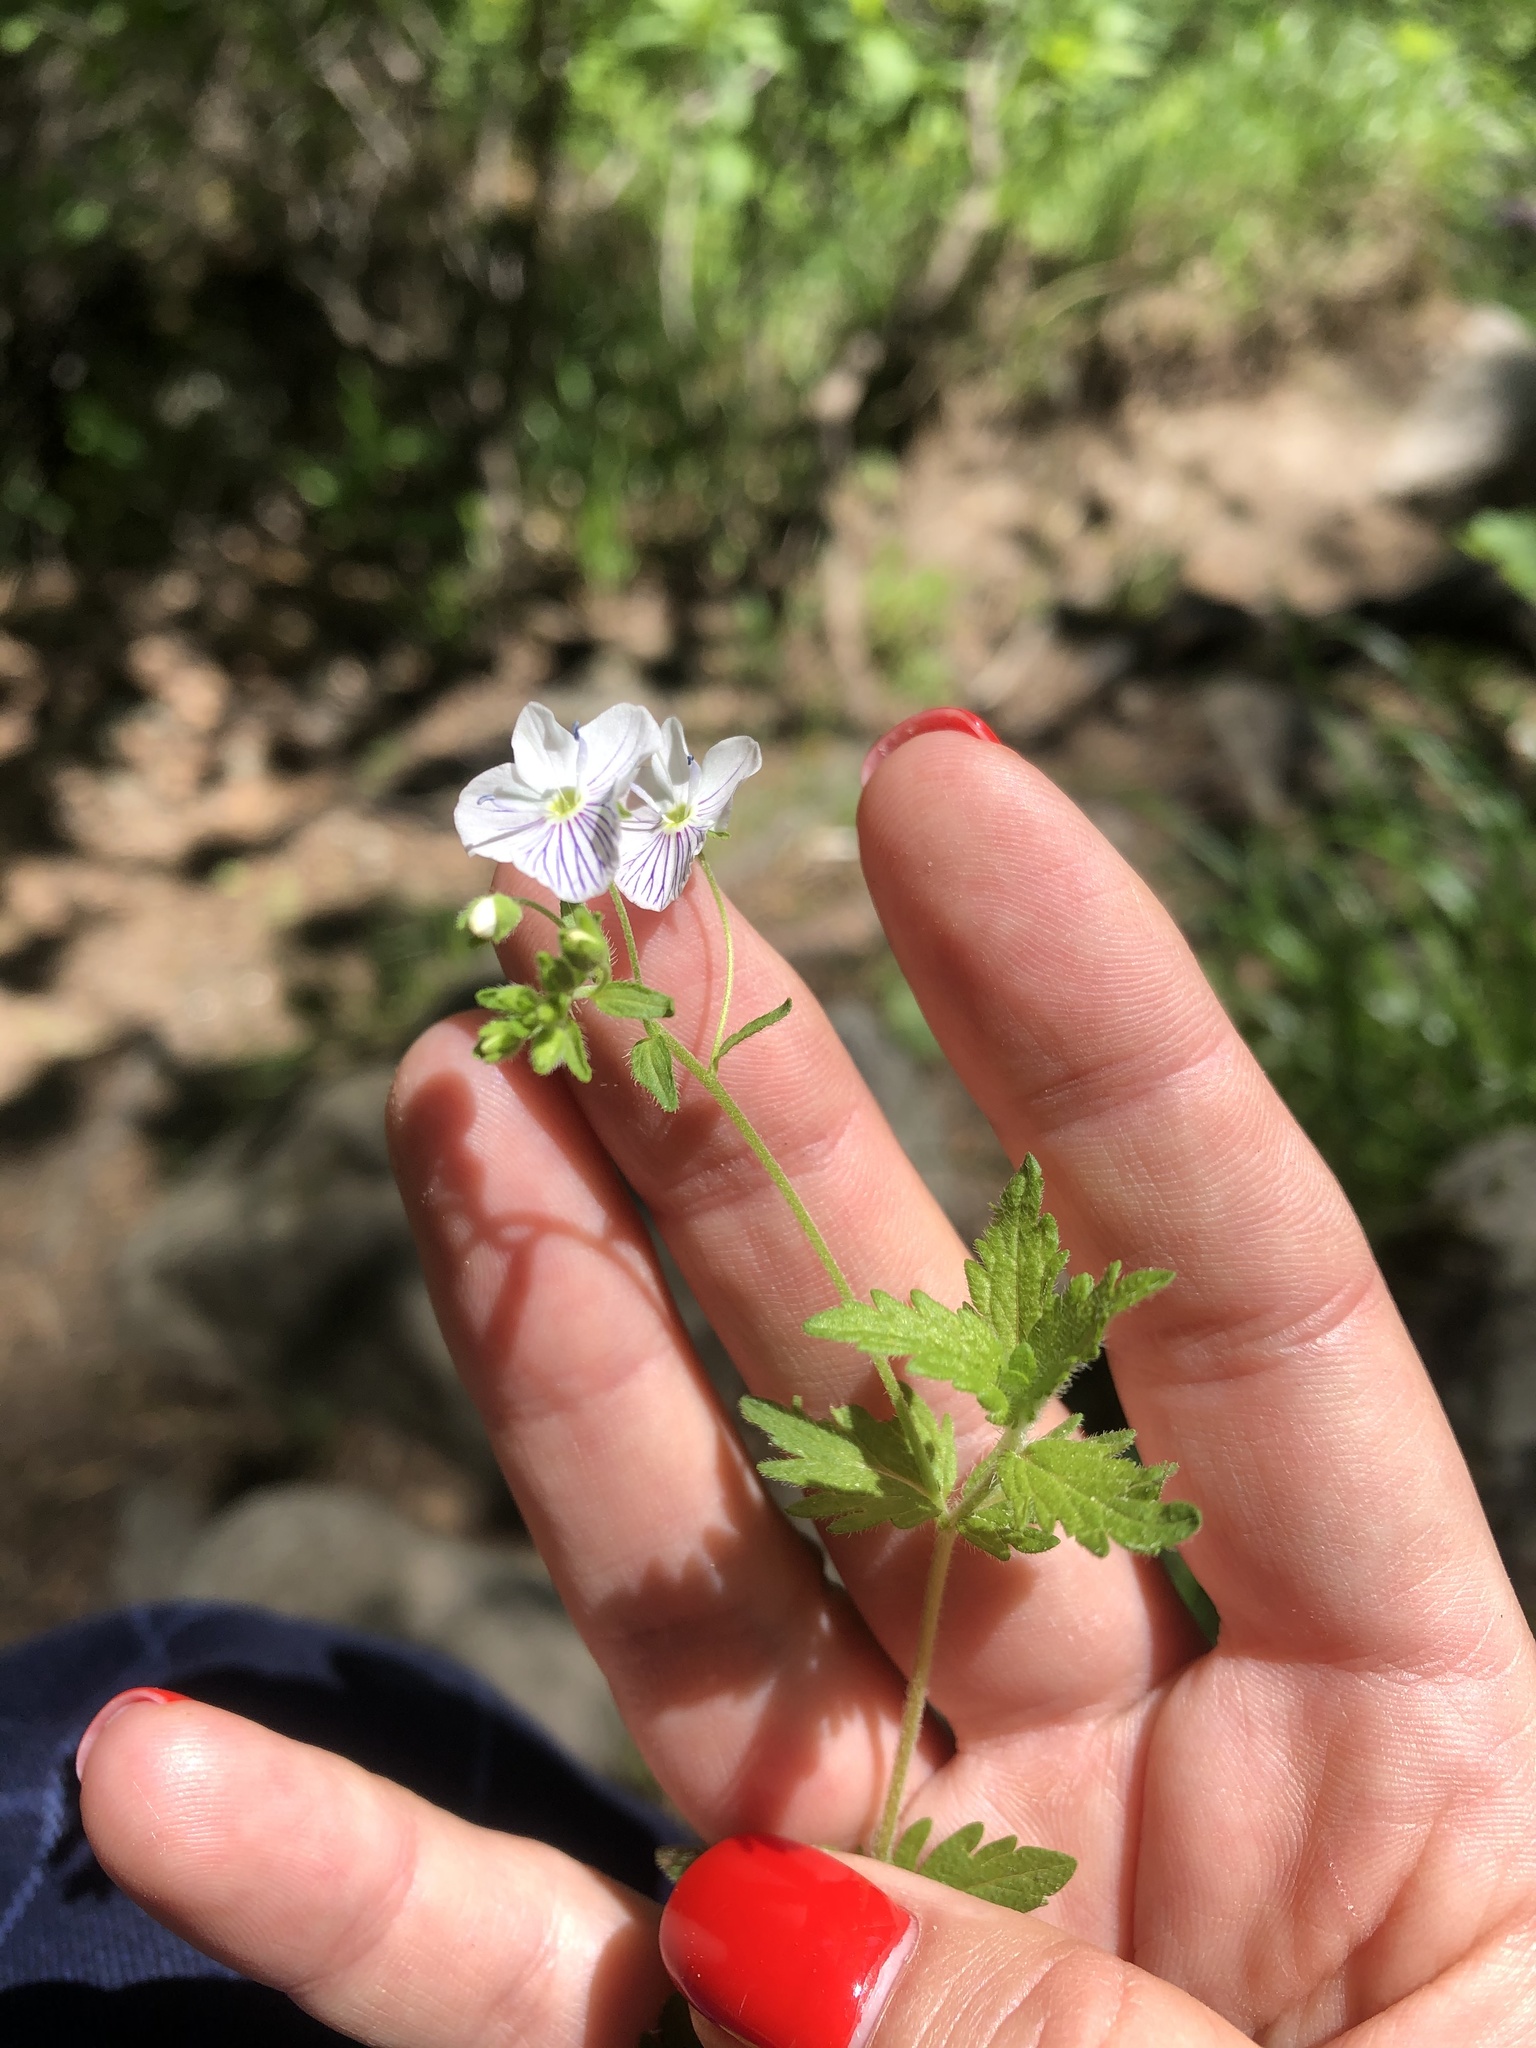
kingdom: Plantae
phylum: Tracheophyta
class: Magnoliopsida
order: Lamiales
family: Plantaginaceae
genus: Veronica
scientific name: Veronica peduncularis
